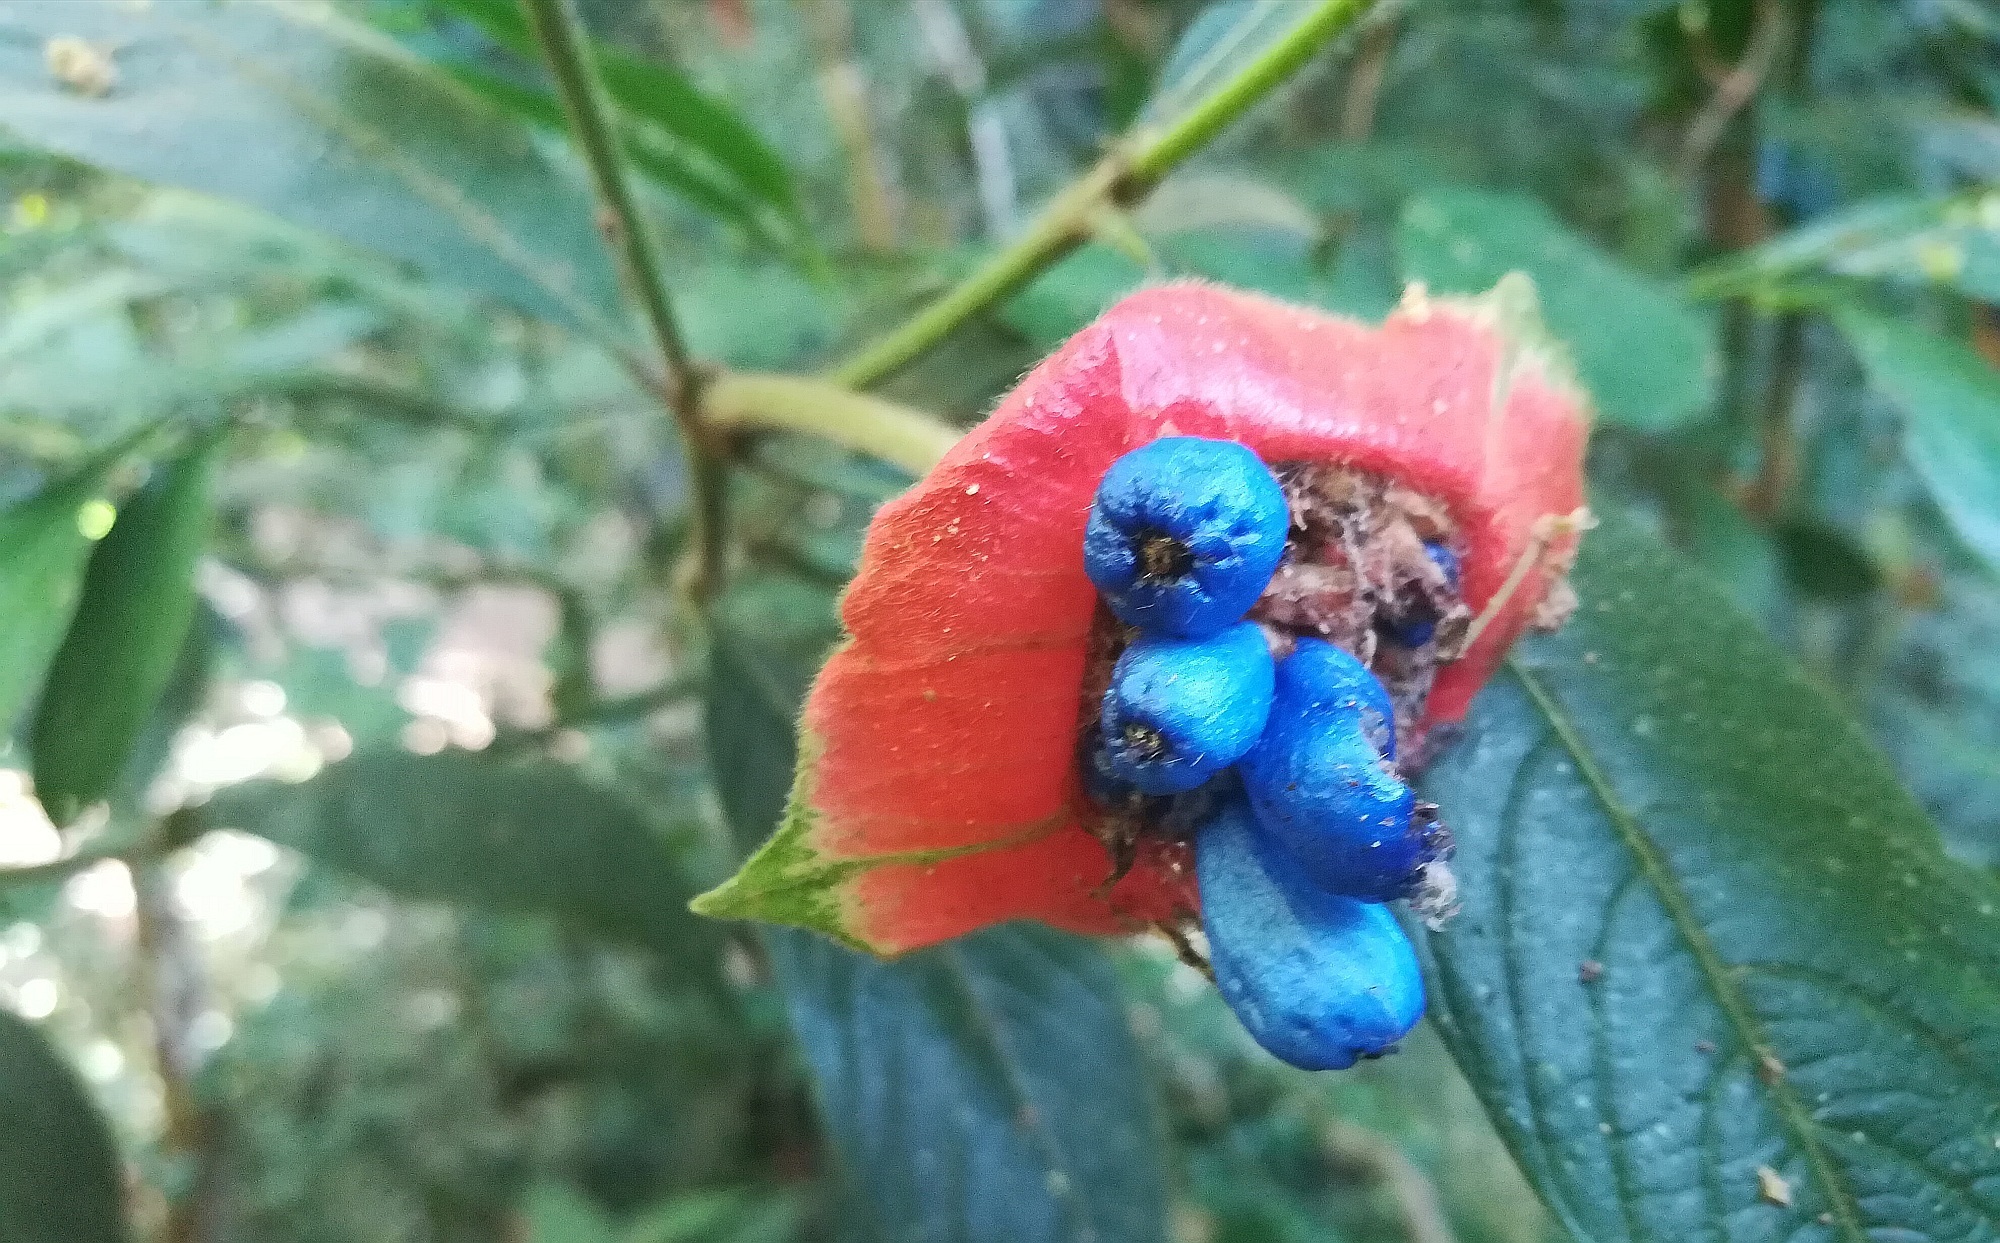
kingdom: Plantae
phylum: Tracheophyta
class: Magnoliopsida
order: Gentianales
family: Rubiaceae
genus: Palicourea
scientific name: Palicourea tomentosa
